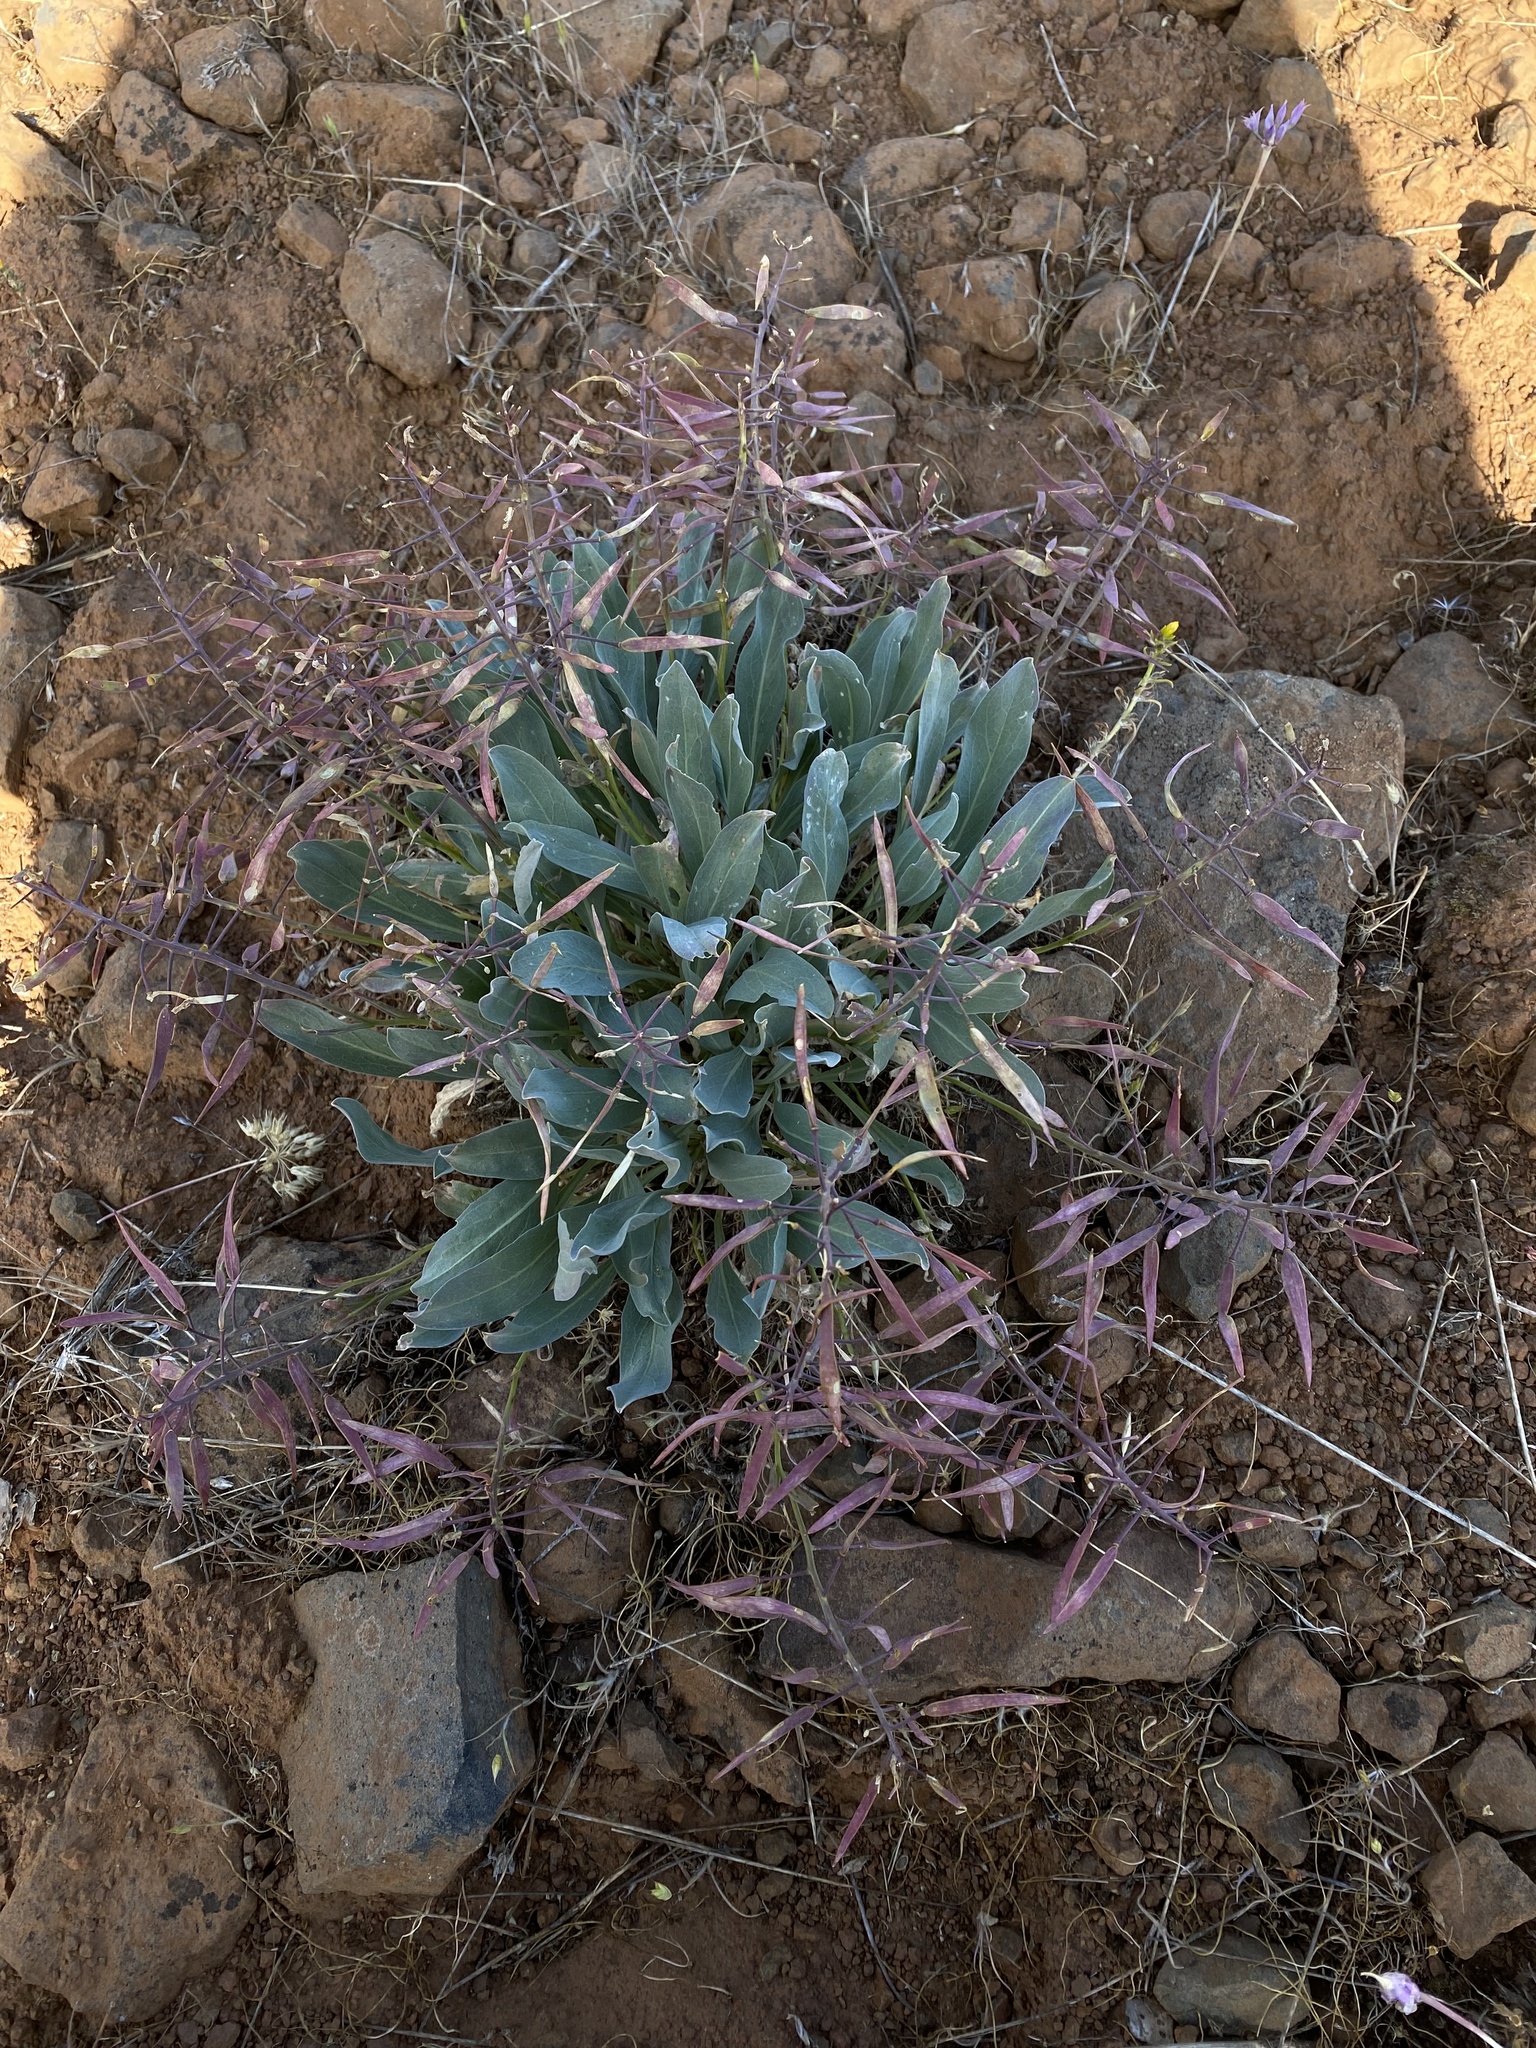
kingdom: Plantae
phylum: Tracheophyta
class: Magnoliopsida
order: Brassicales
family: Brassicaceae
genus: Phoenicaulis
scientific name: Phoenicaulis cheiranthoides
